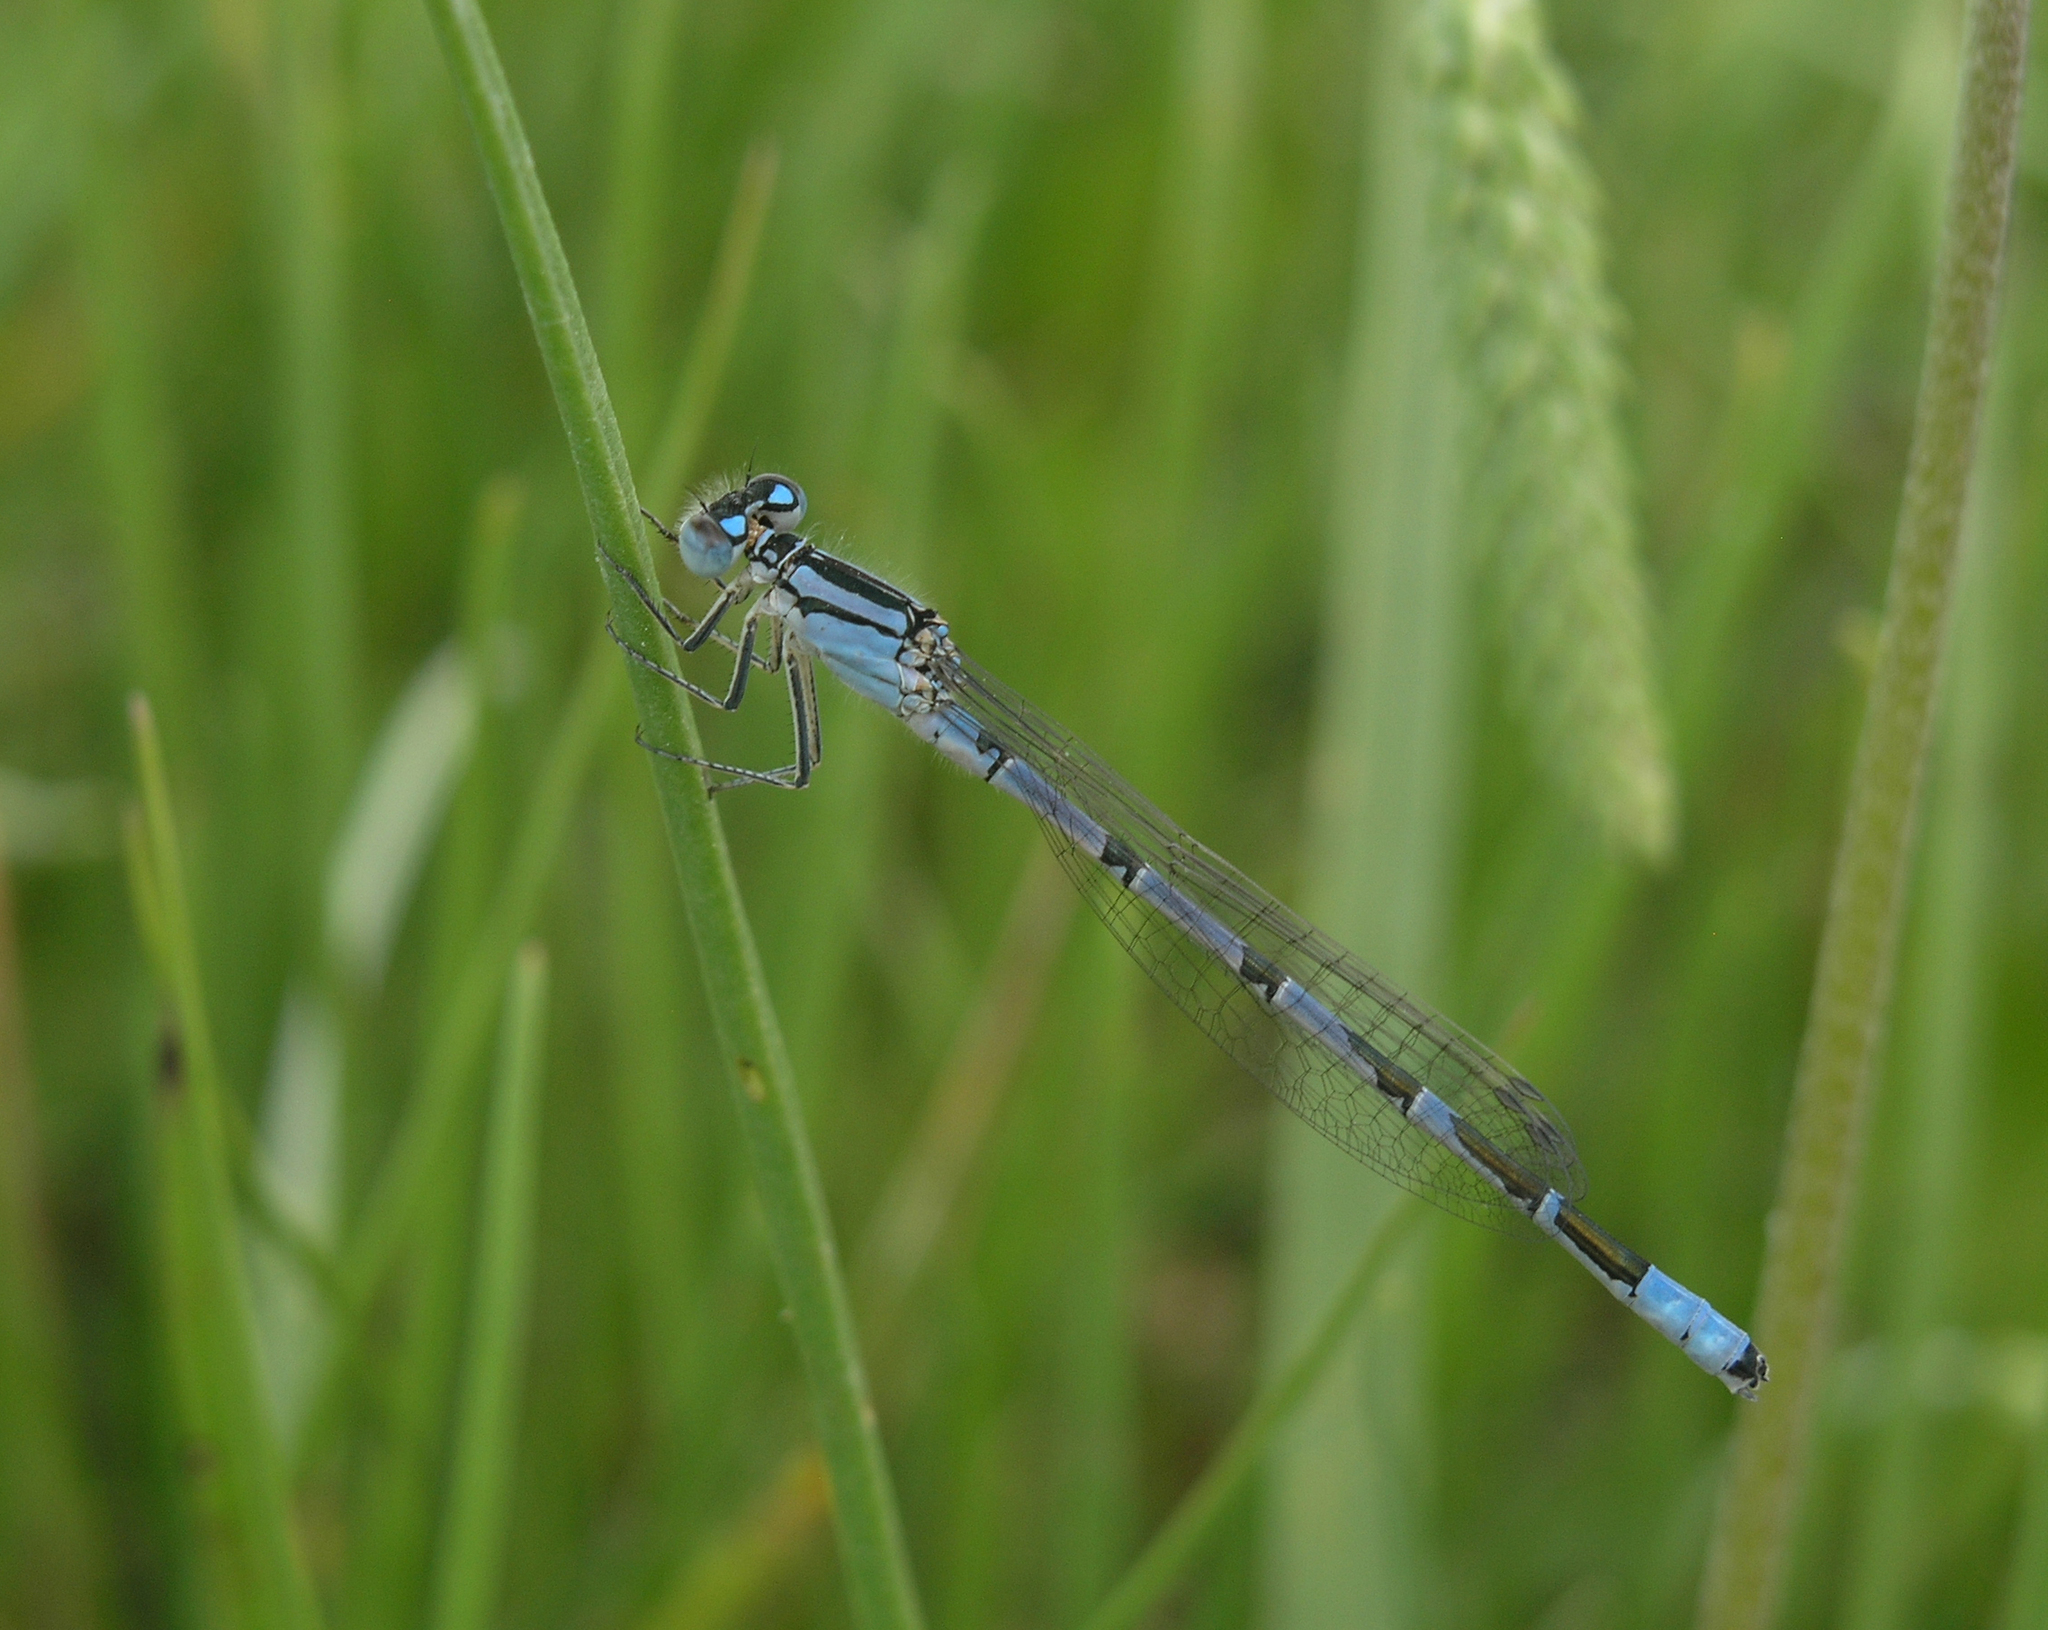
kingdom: Animalia
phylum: Arthropoda
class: Insecta
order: Odonata
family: Coenagrionidae
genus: Enallagma
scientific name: Enallagma cyathigerum
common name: Common blue damselfly
